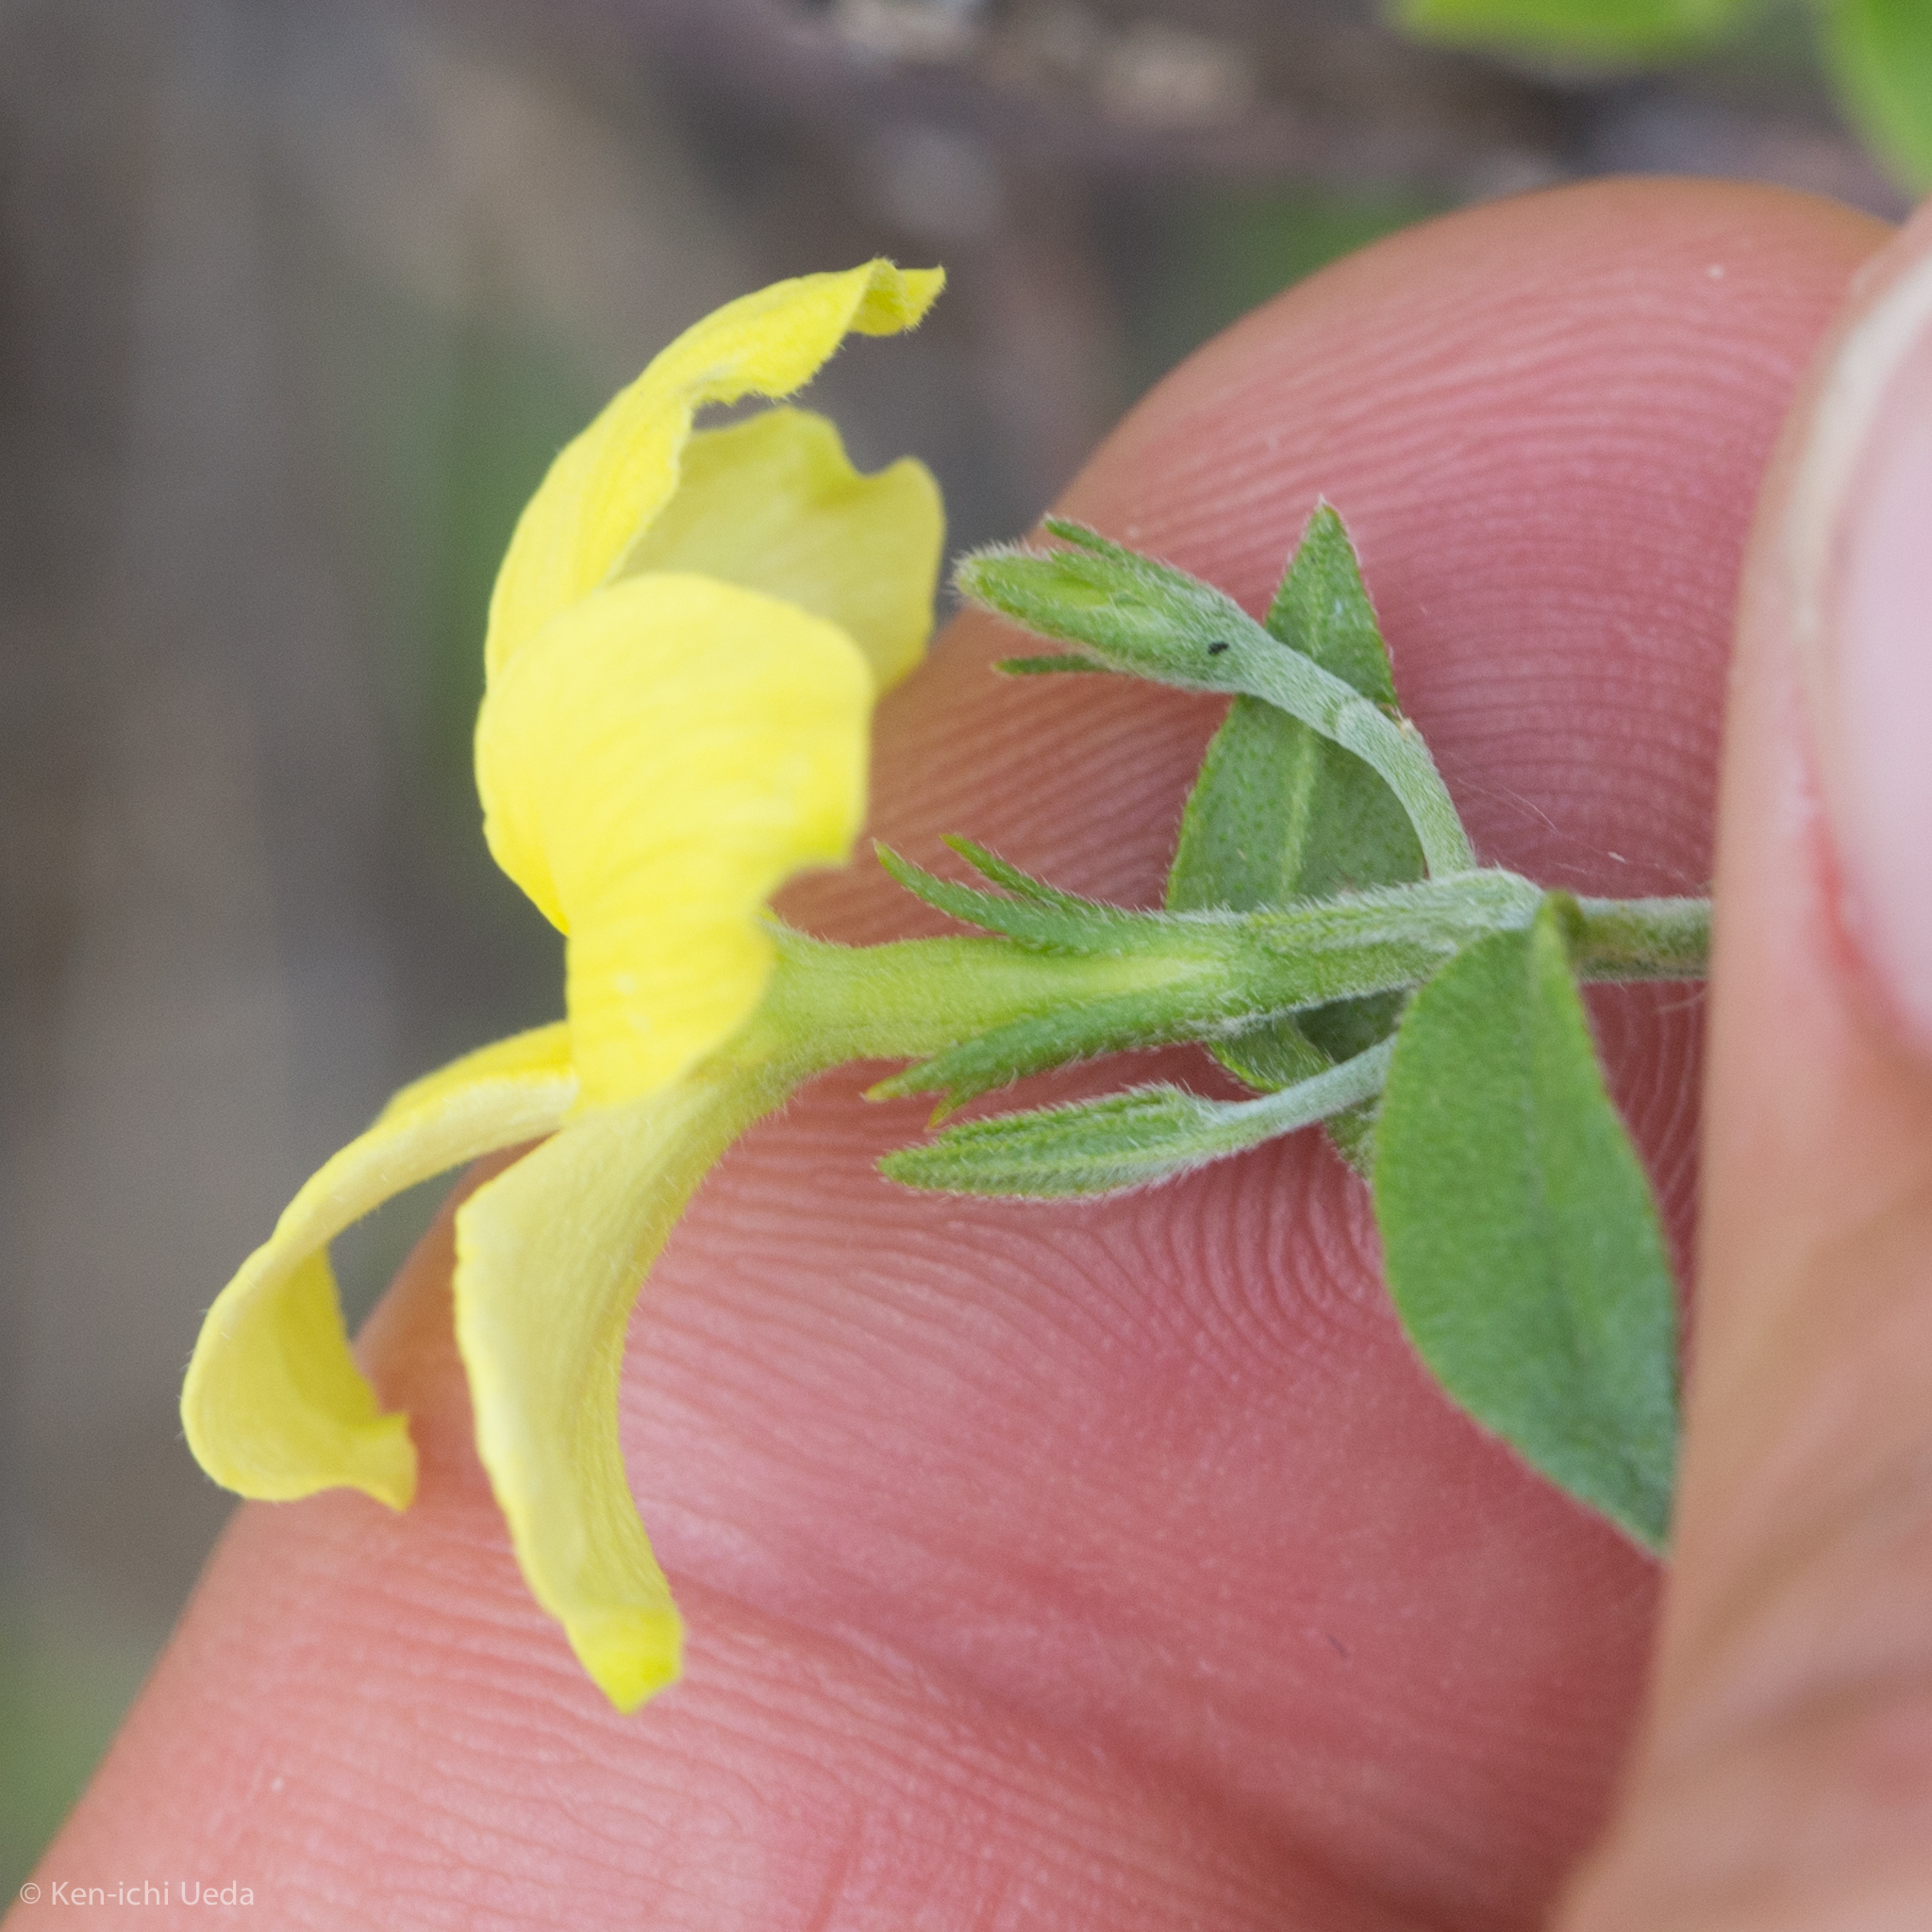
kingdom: Plantae
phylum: Tracheophyta
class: Magnoliopsida
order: Gentianales
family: Apocynaceae
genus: Haplophyton
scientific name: Haplophyton crooksii
